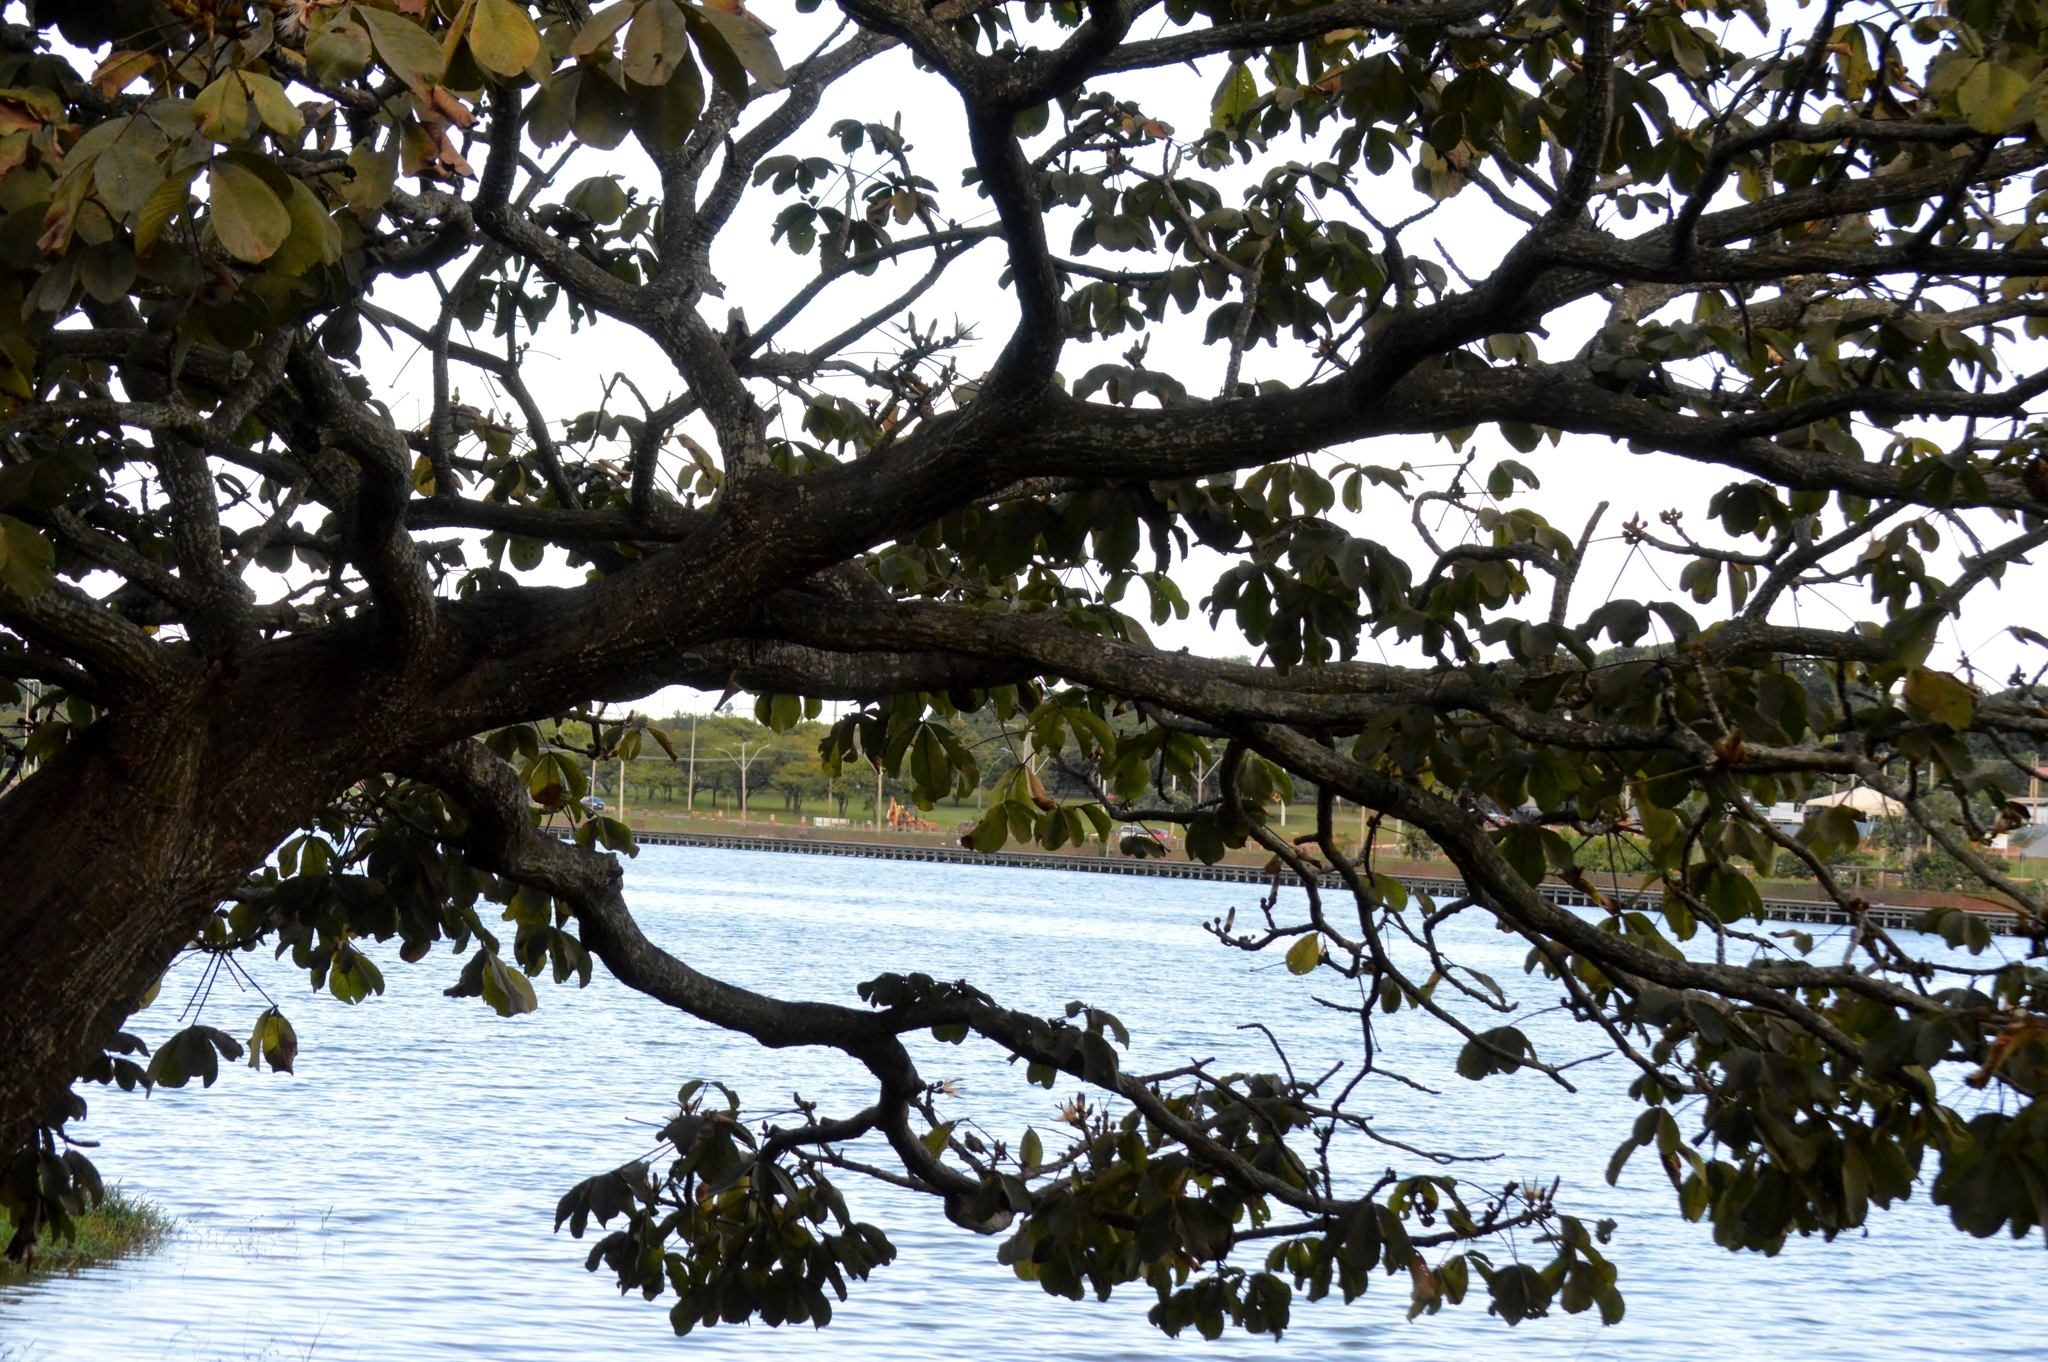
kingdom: Plantae
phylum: Tracheophyta
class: Magnoliopsida
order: Malpighiales
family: Caryocaraceae
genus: Caryocar
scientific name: Caryocar brasiliense
